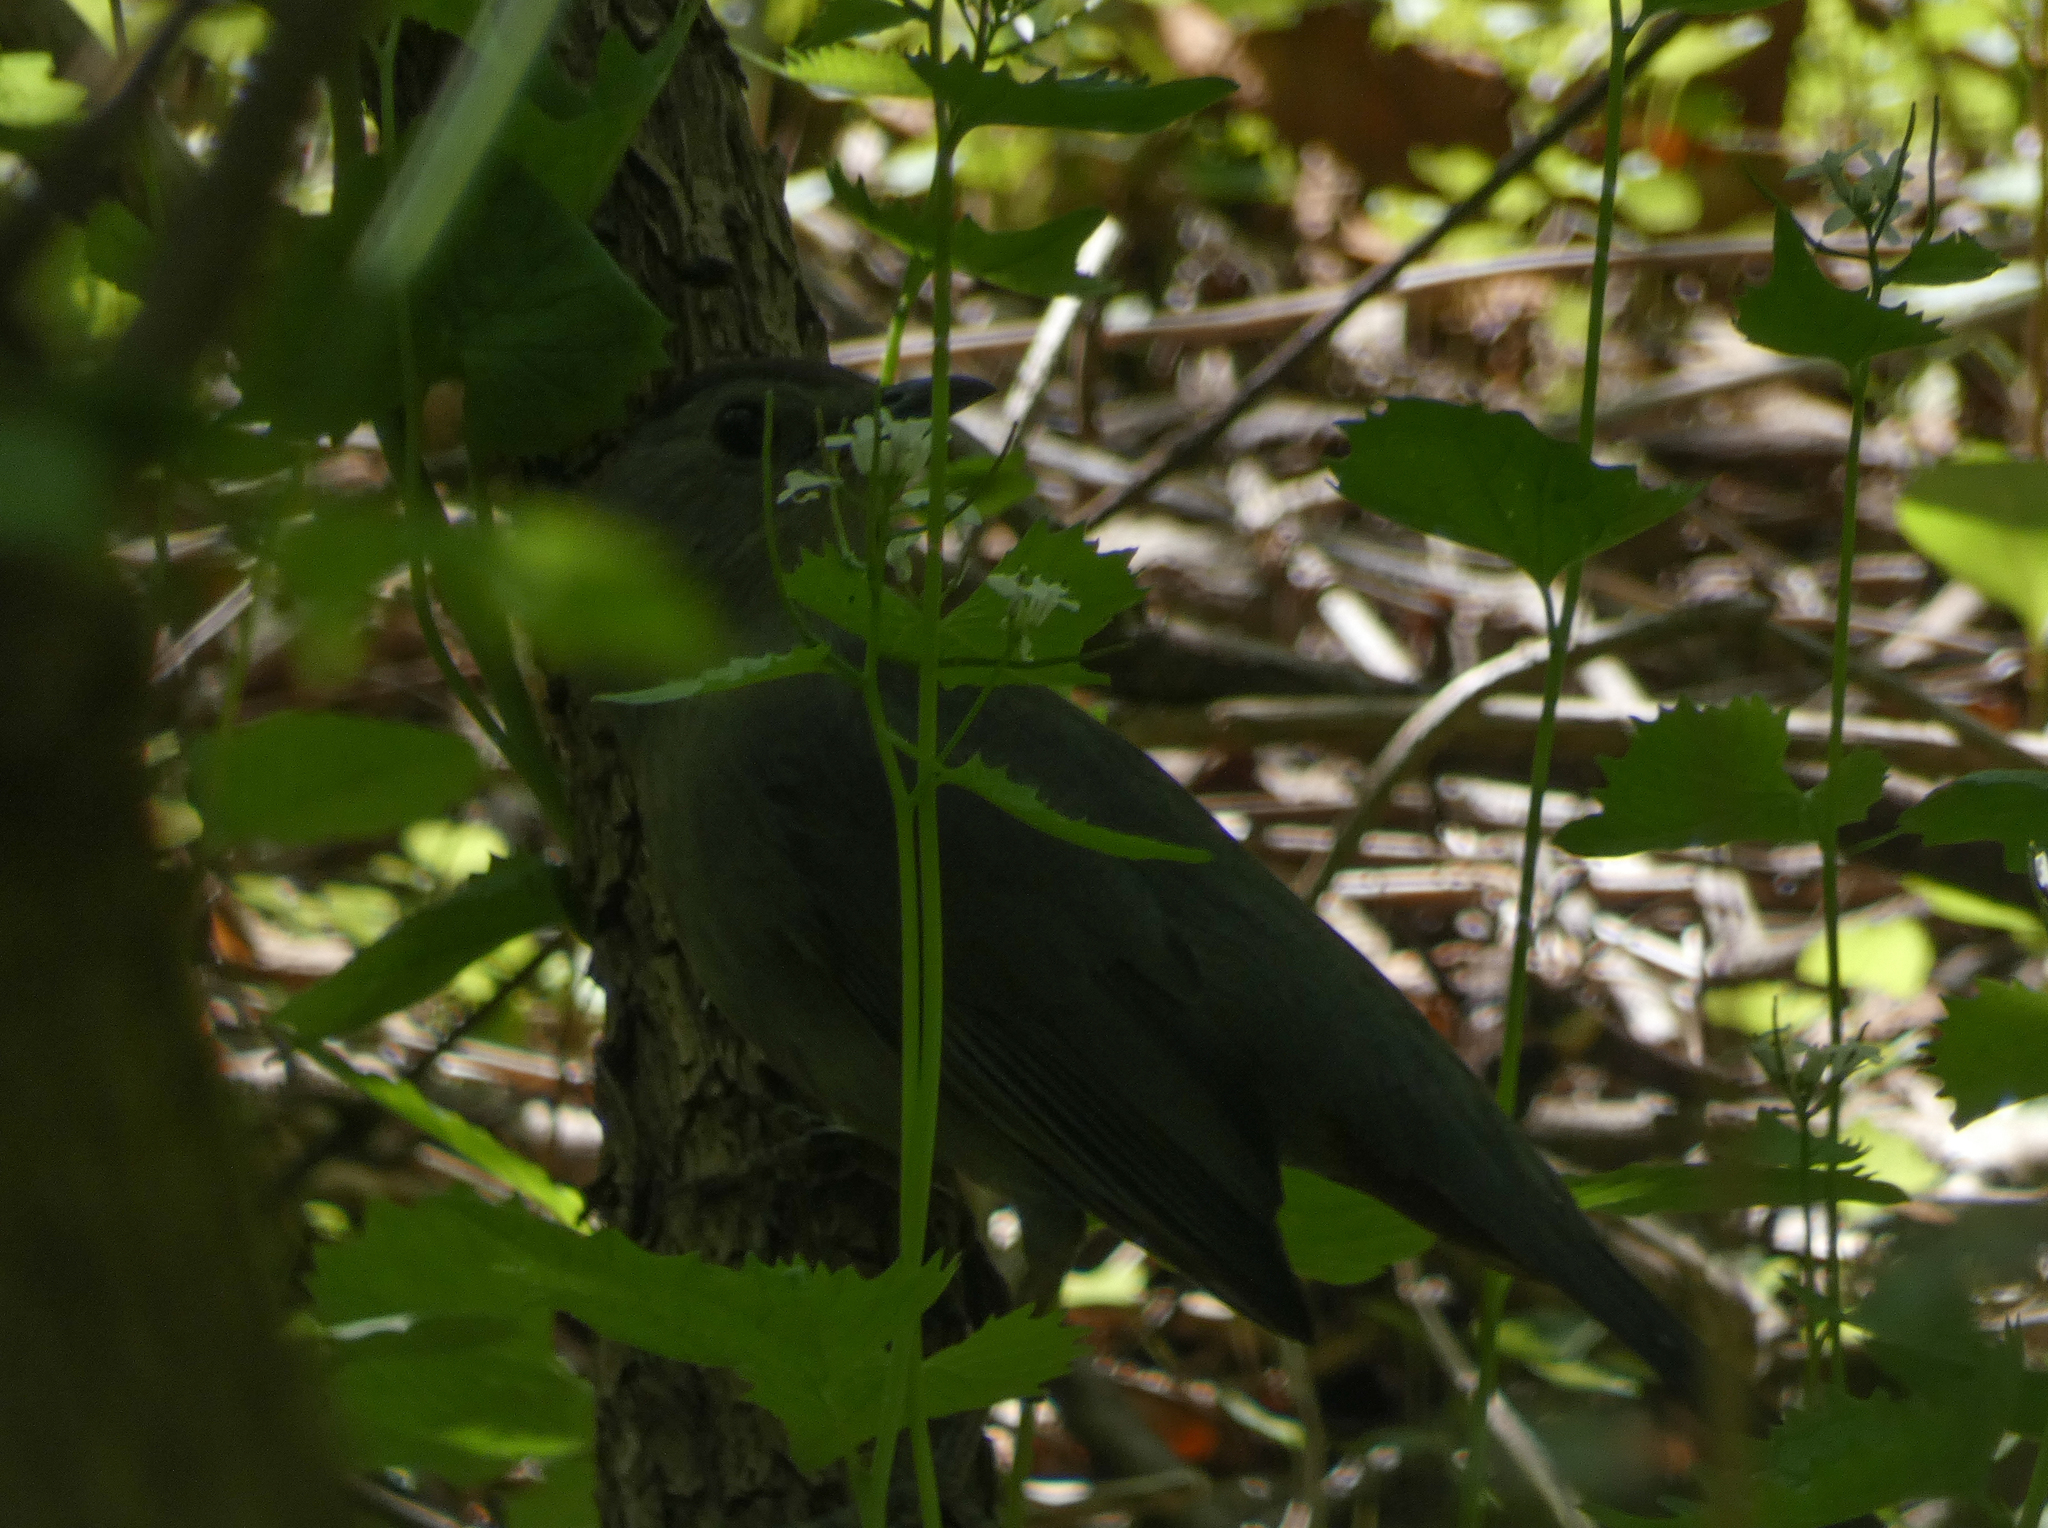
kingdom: Animalia
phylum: Chordata
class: Aves
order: Passeriformes
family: Mimidae
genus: Dumetella
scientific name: Dumetella carolinensis
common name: Gray catbird
